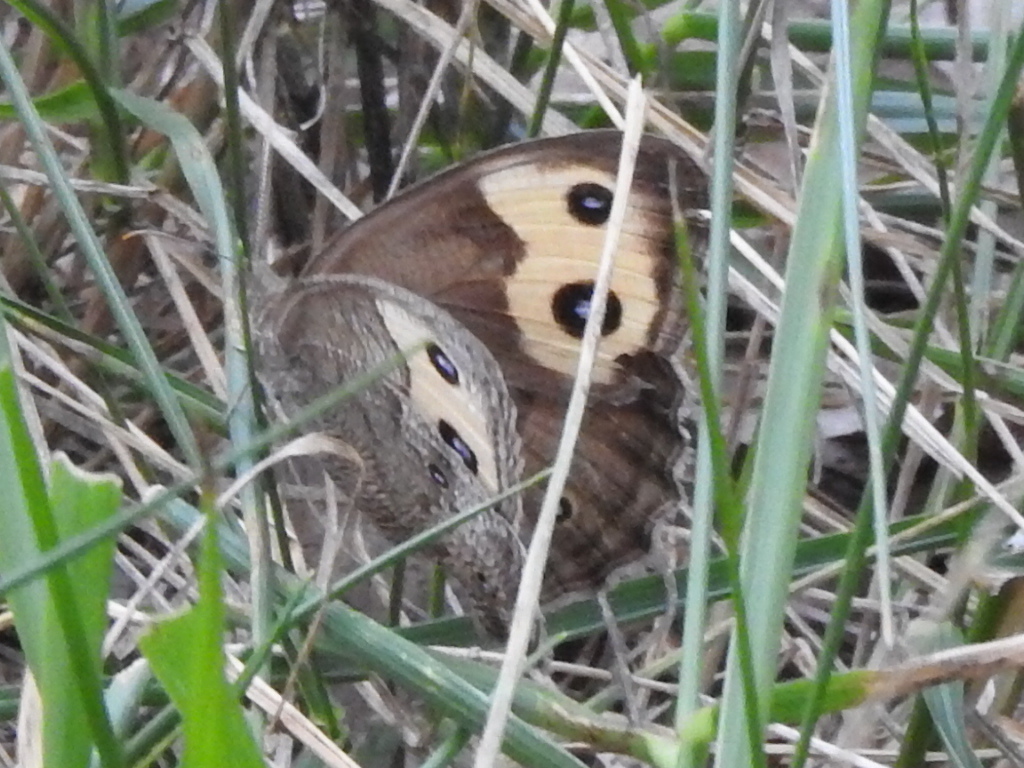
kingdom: Animalia
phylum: Arthropoda
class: Insecta
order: Lepidoptera
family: Nymphalidae
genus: Cercyonis
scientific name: Cercyonis pegala
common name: Common wood-nymph
